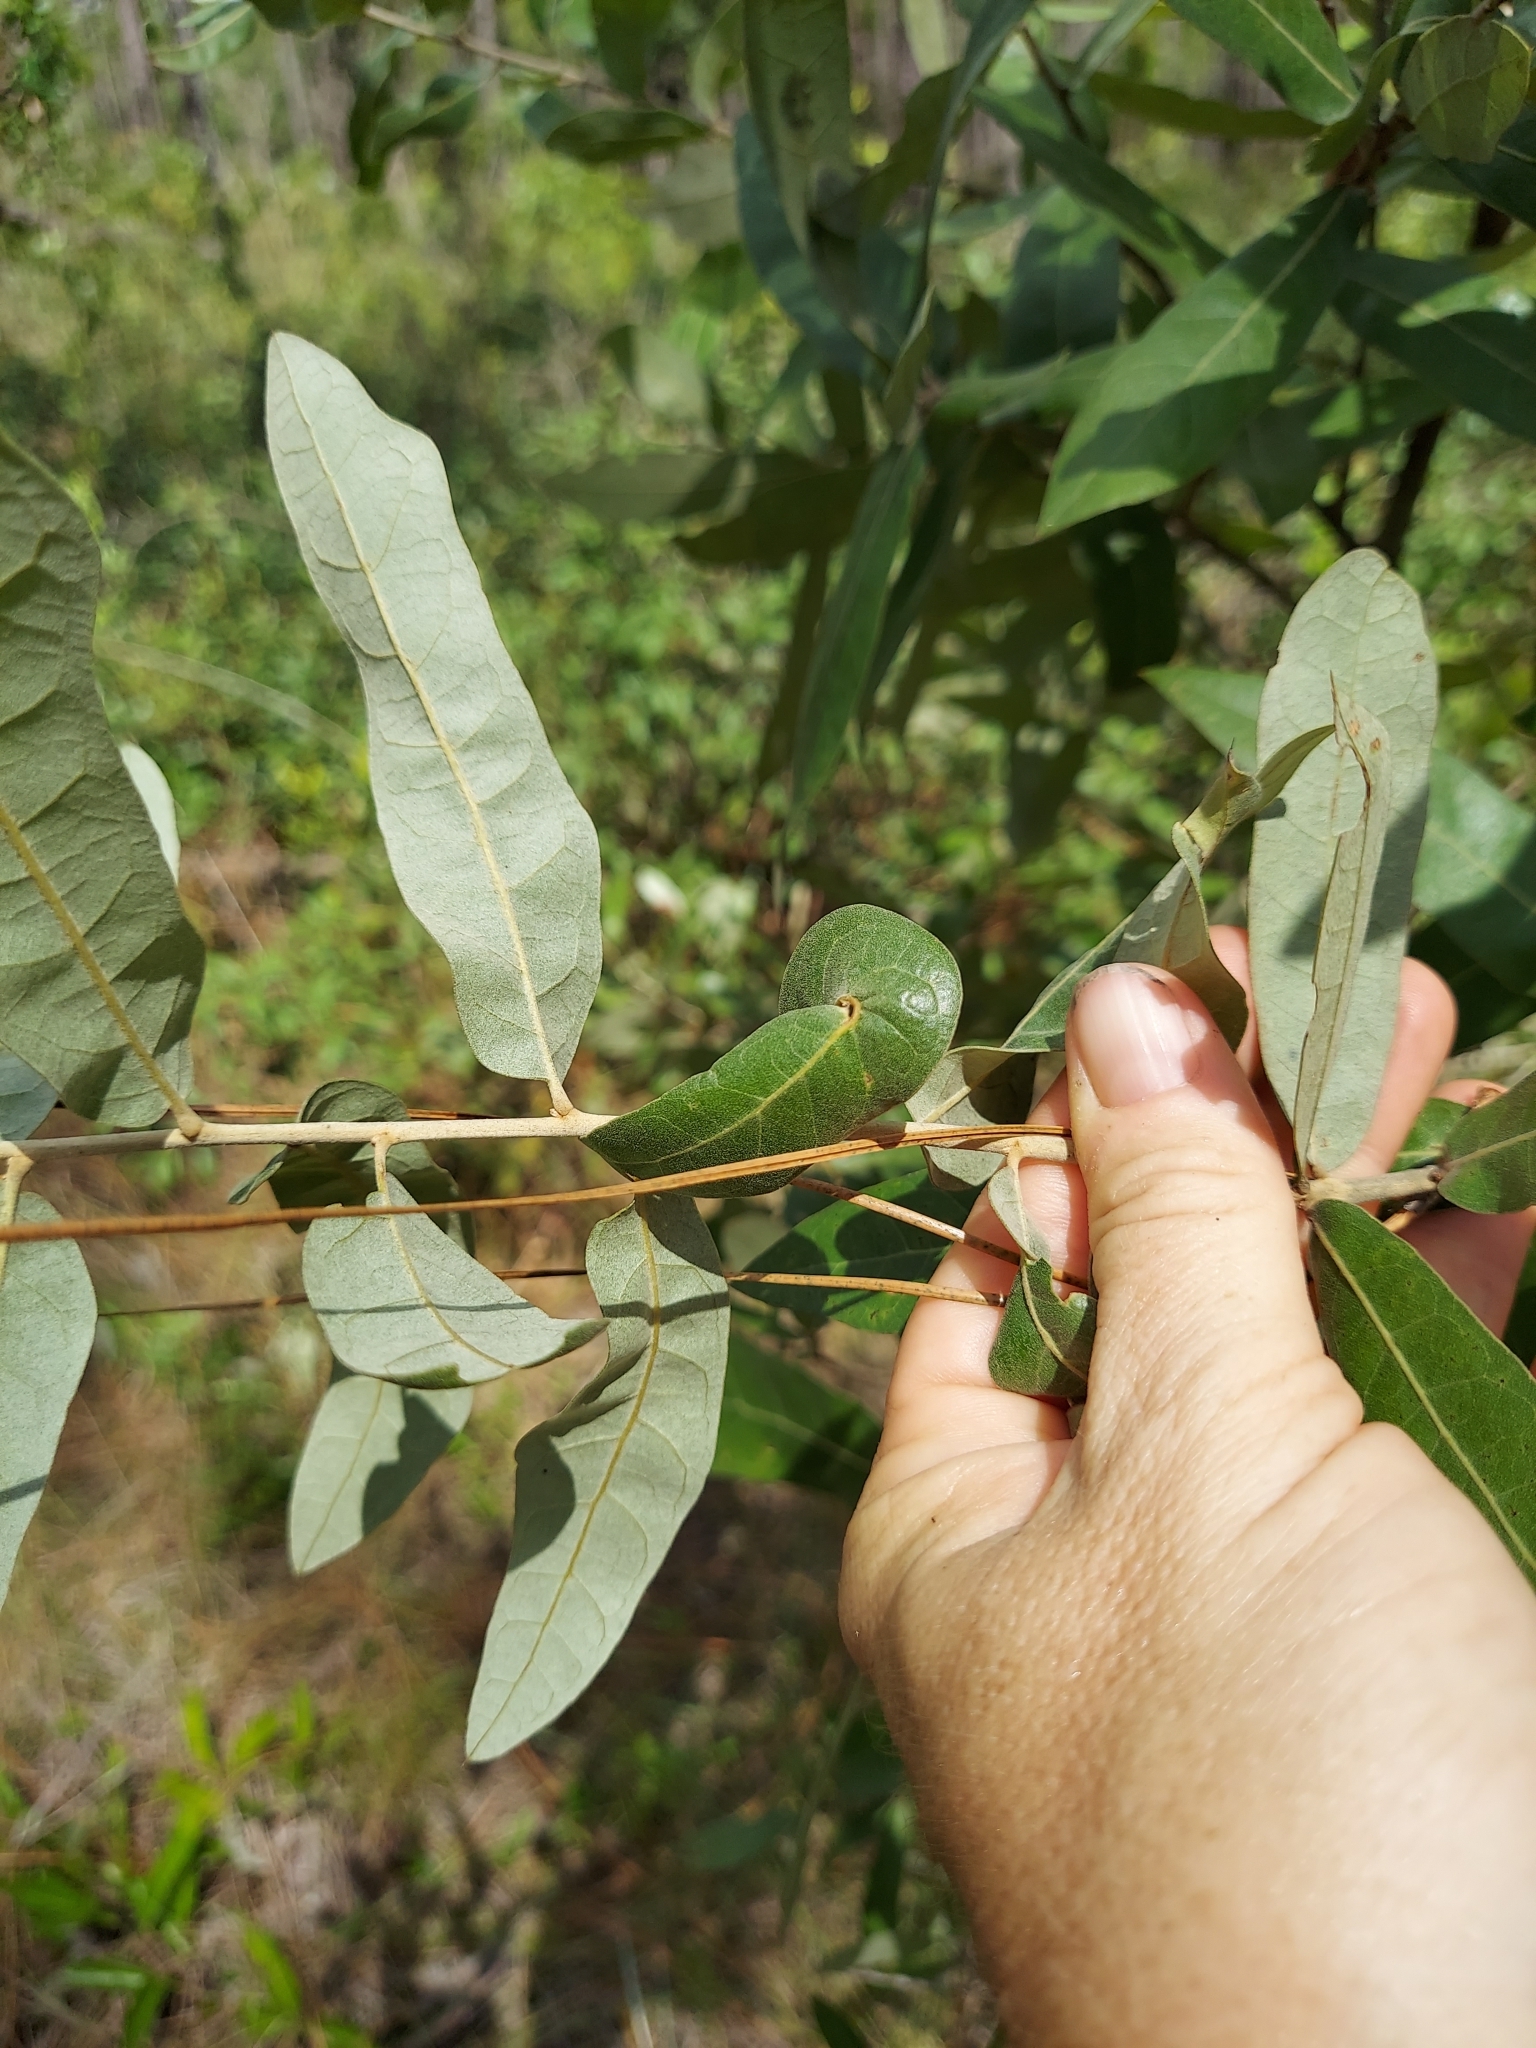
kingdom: Plantae
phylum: Tracheophyta
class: Magnoliopsida
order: Fagales
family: Fagaceae
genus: Quercus
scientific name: Quercus incana
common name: Bluejack oak
